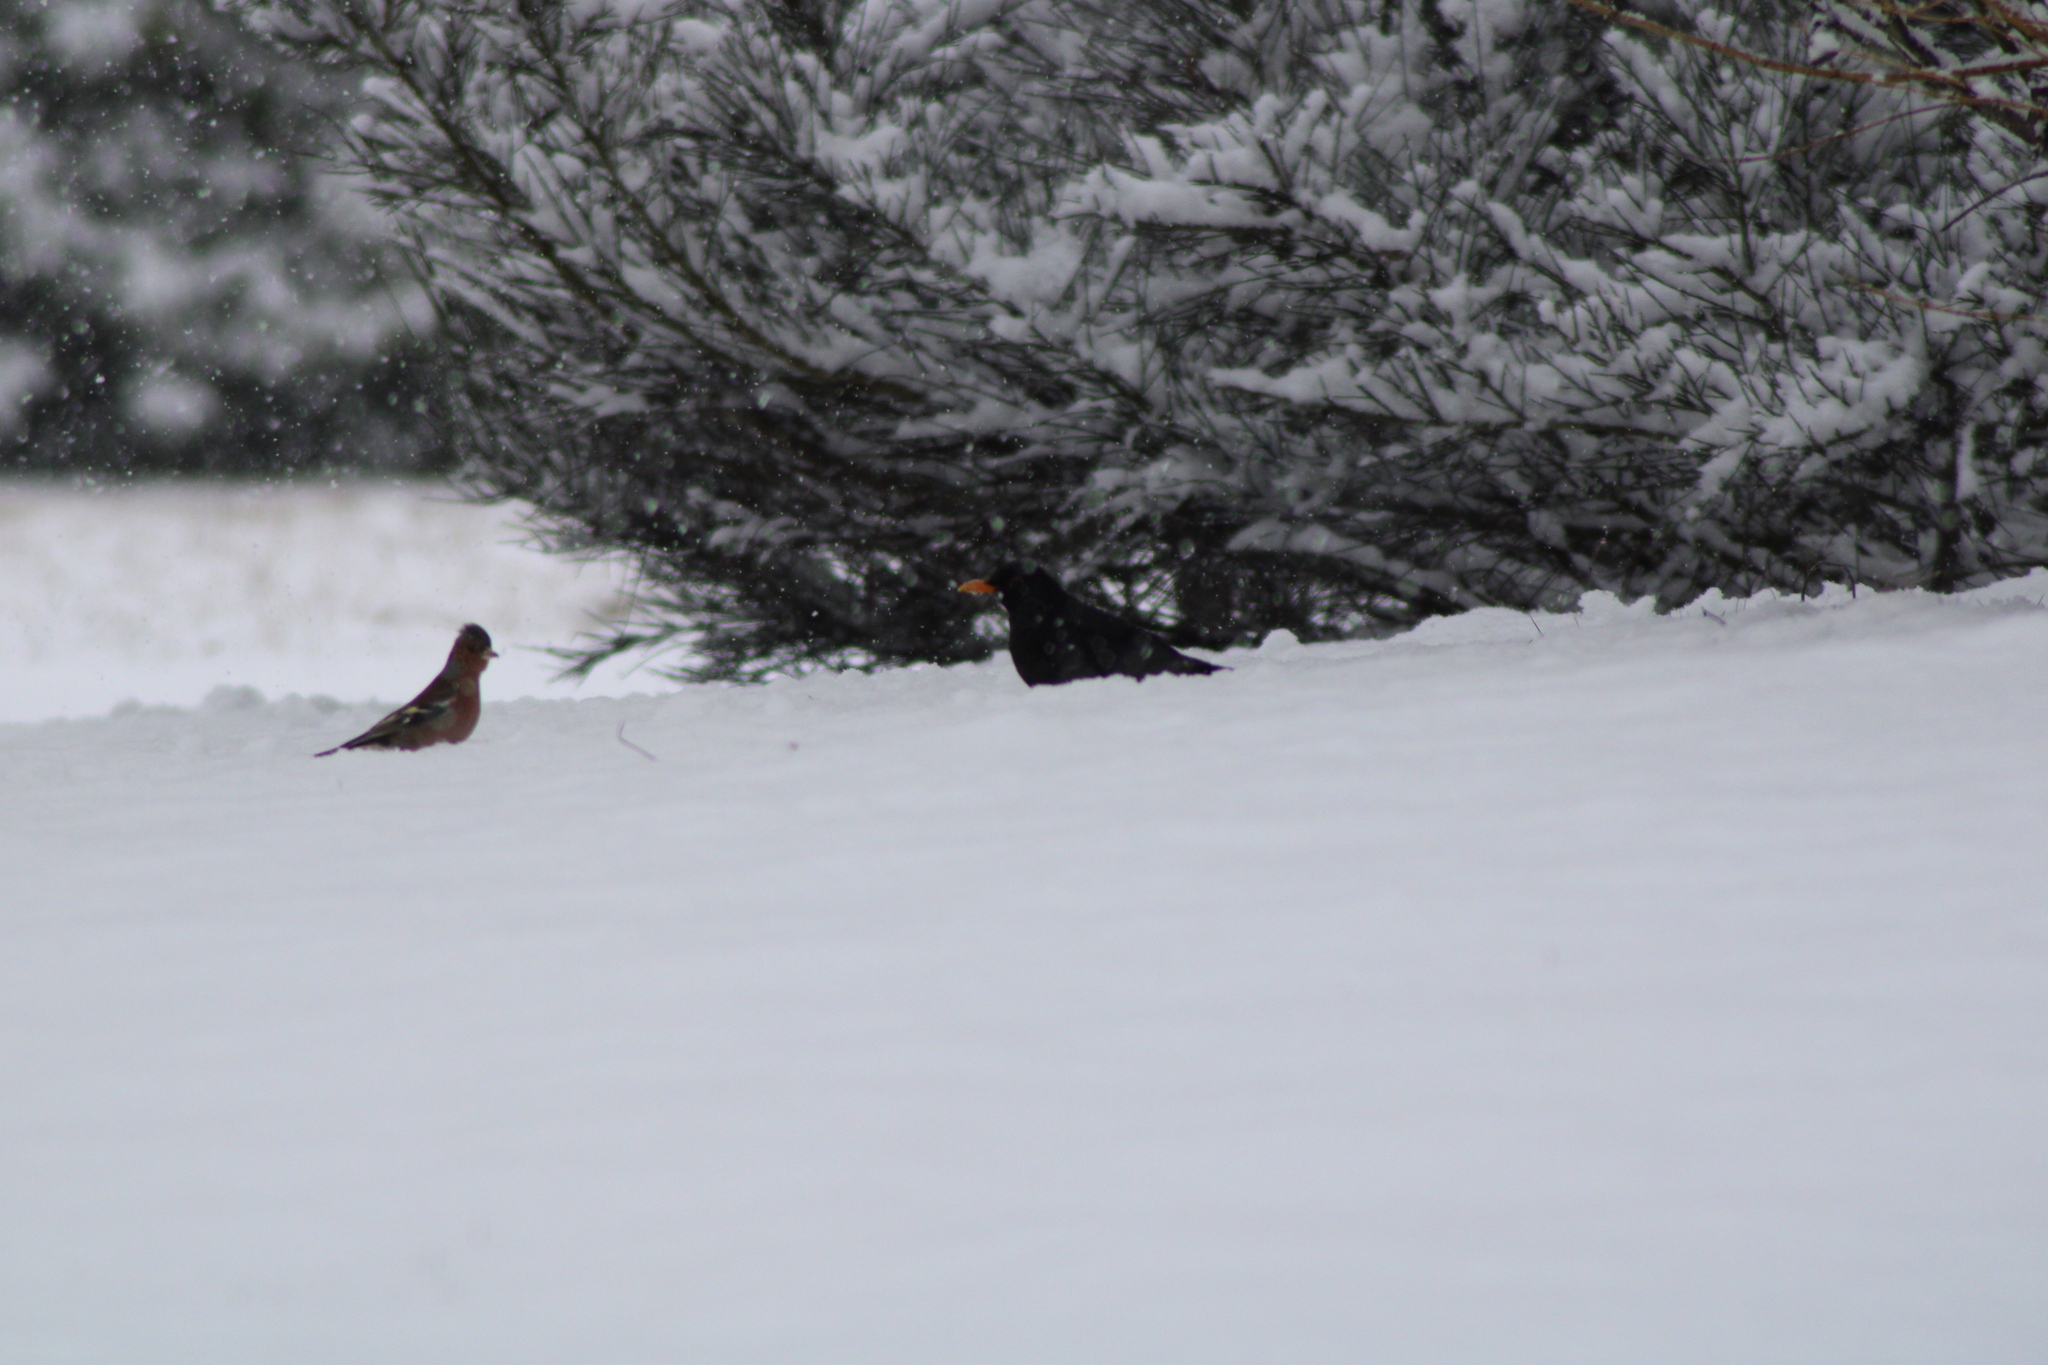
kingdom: Animalia
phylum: Chordata
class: Aves
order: Passeriformes
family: Turdidae
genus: Turdus
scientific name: Turdus merula
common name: Common blackbird
